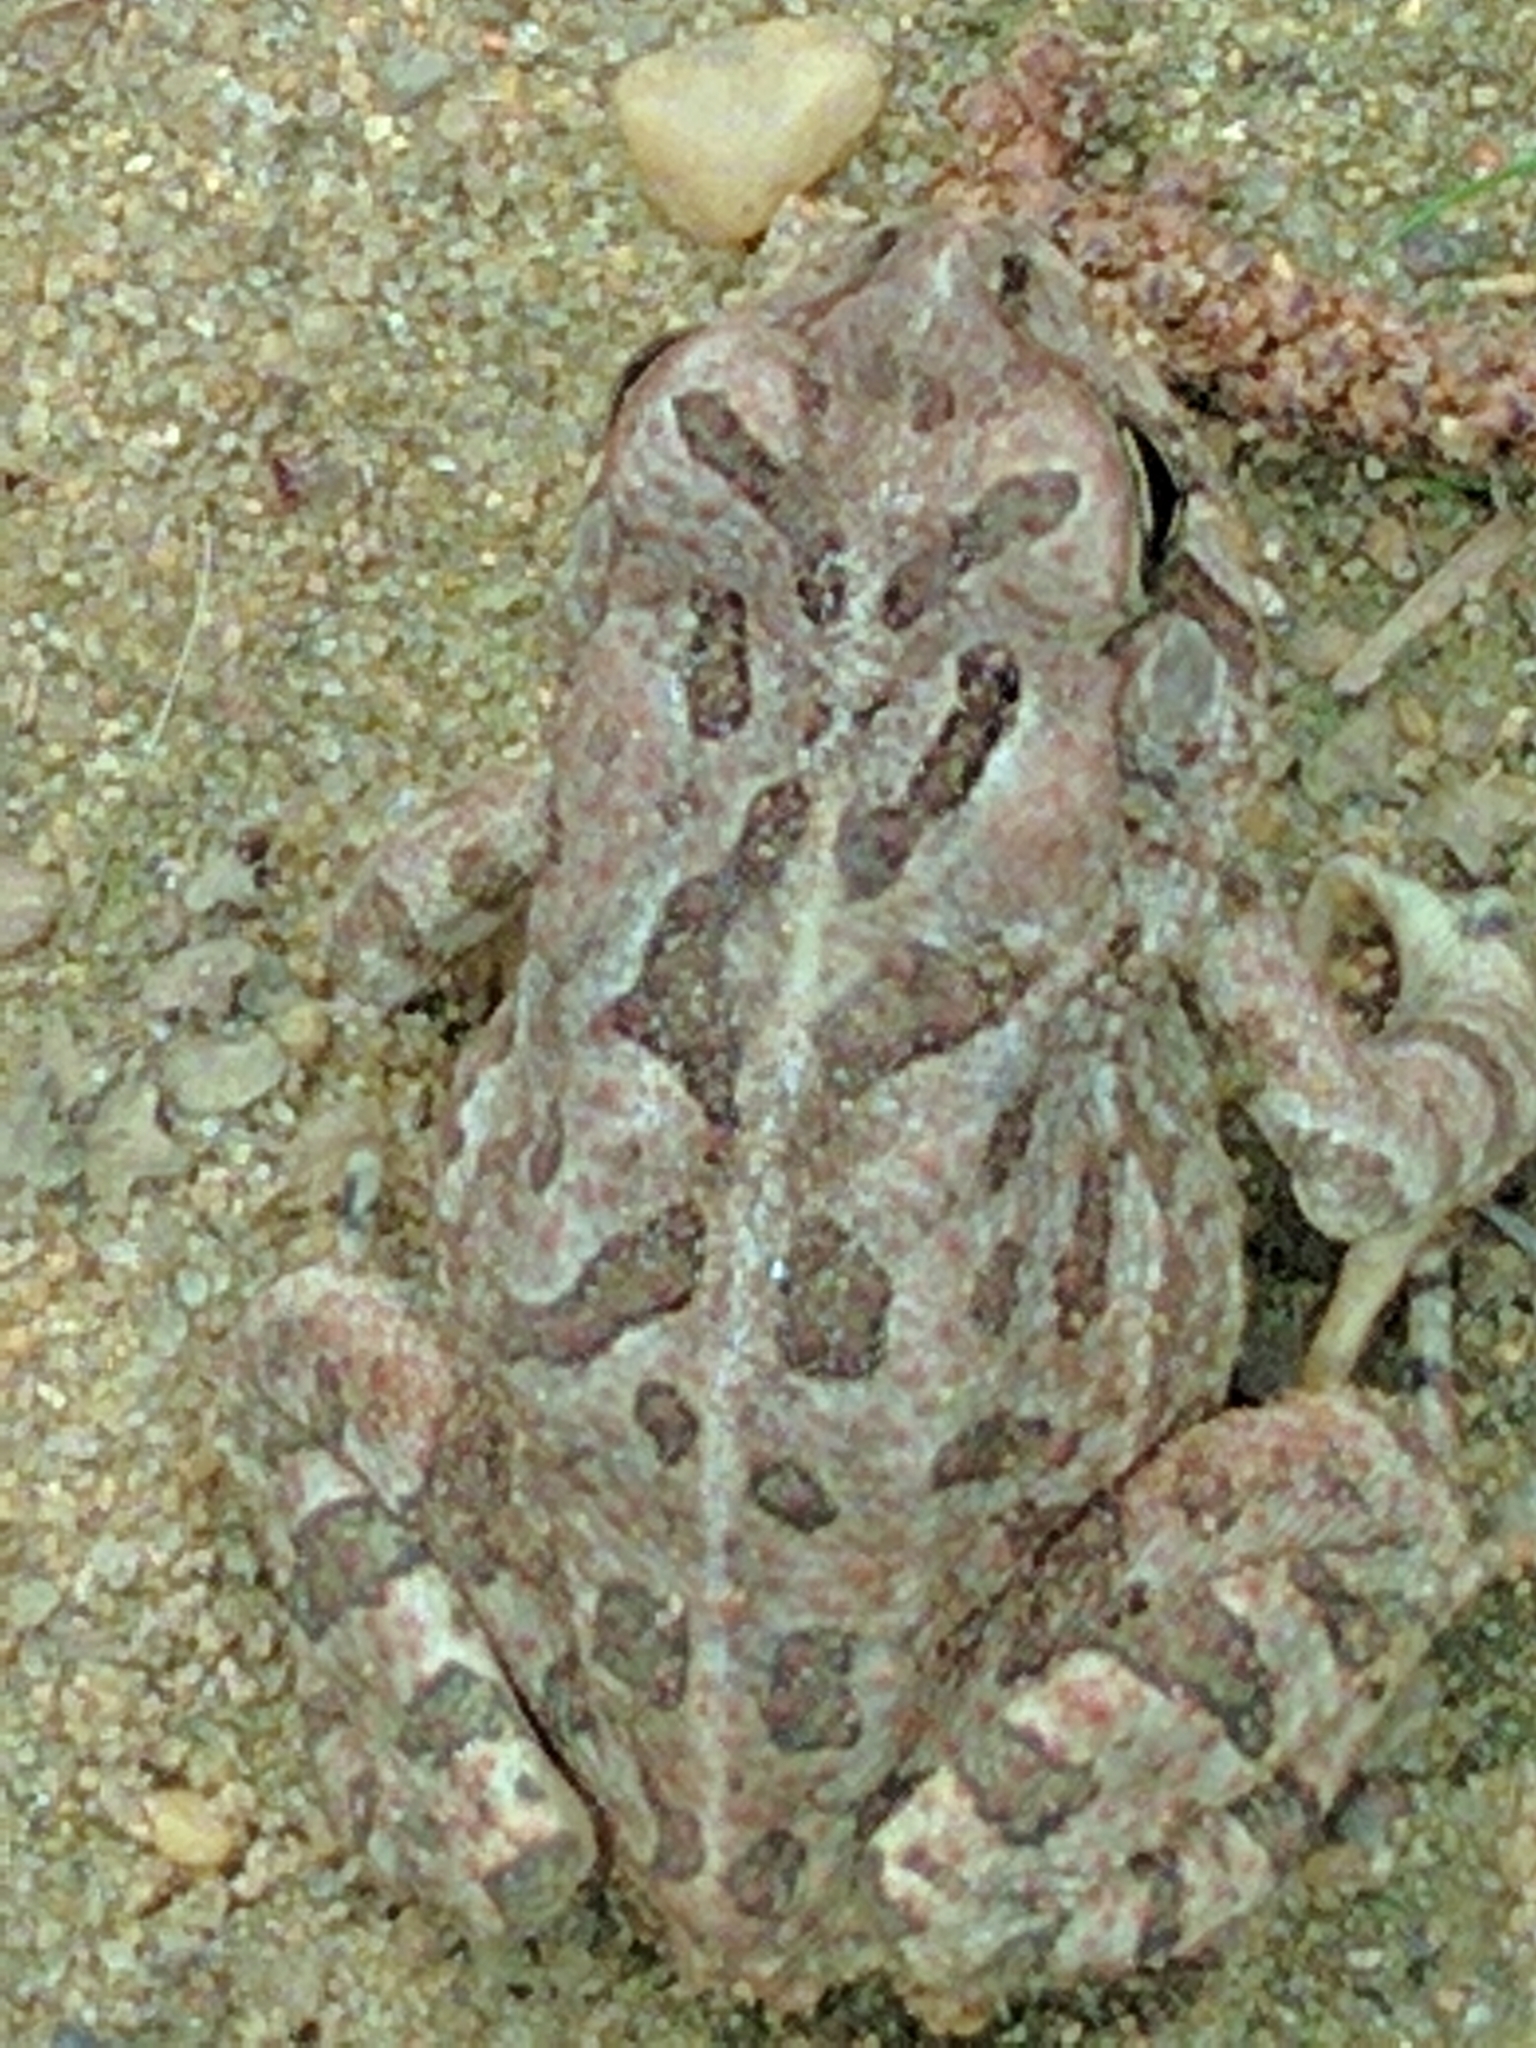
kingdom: Animalia
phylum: Chordata
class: Amphibia
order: Anura
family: Bufonidae
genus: Anaxyrus
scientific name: Anaxyrus fowleri
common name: Fowler's toad
